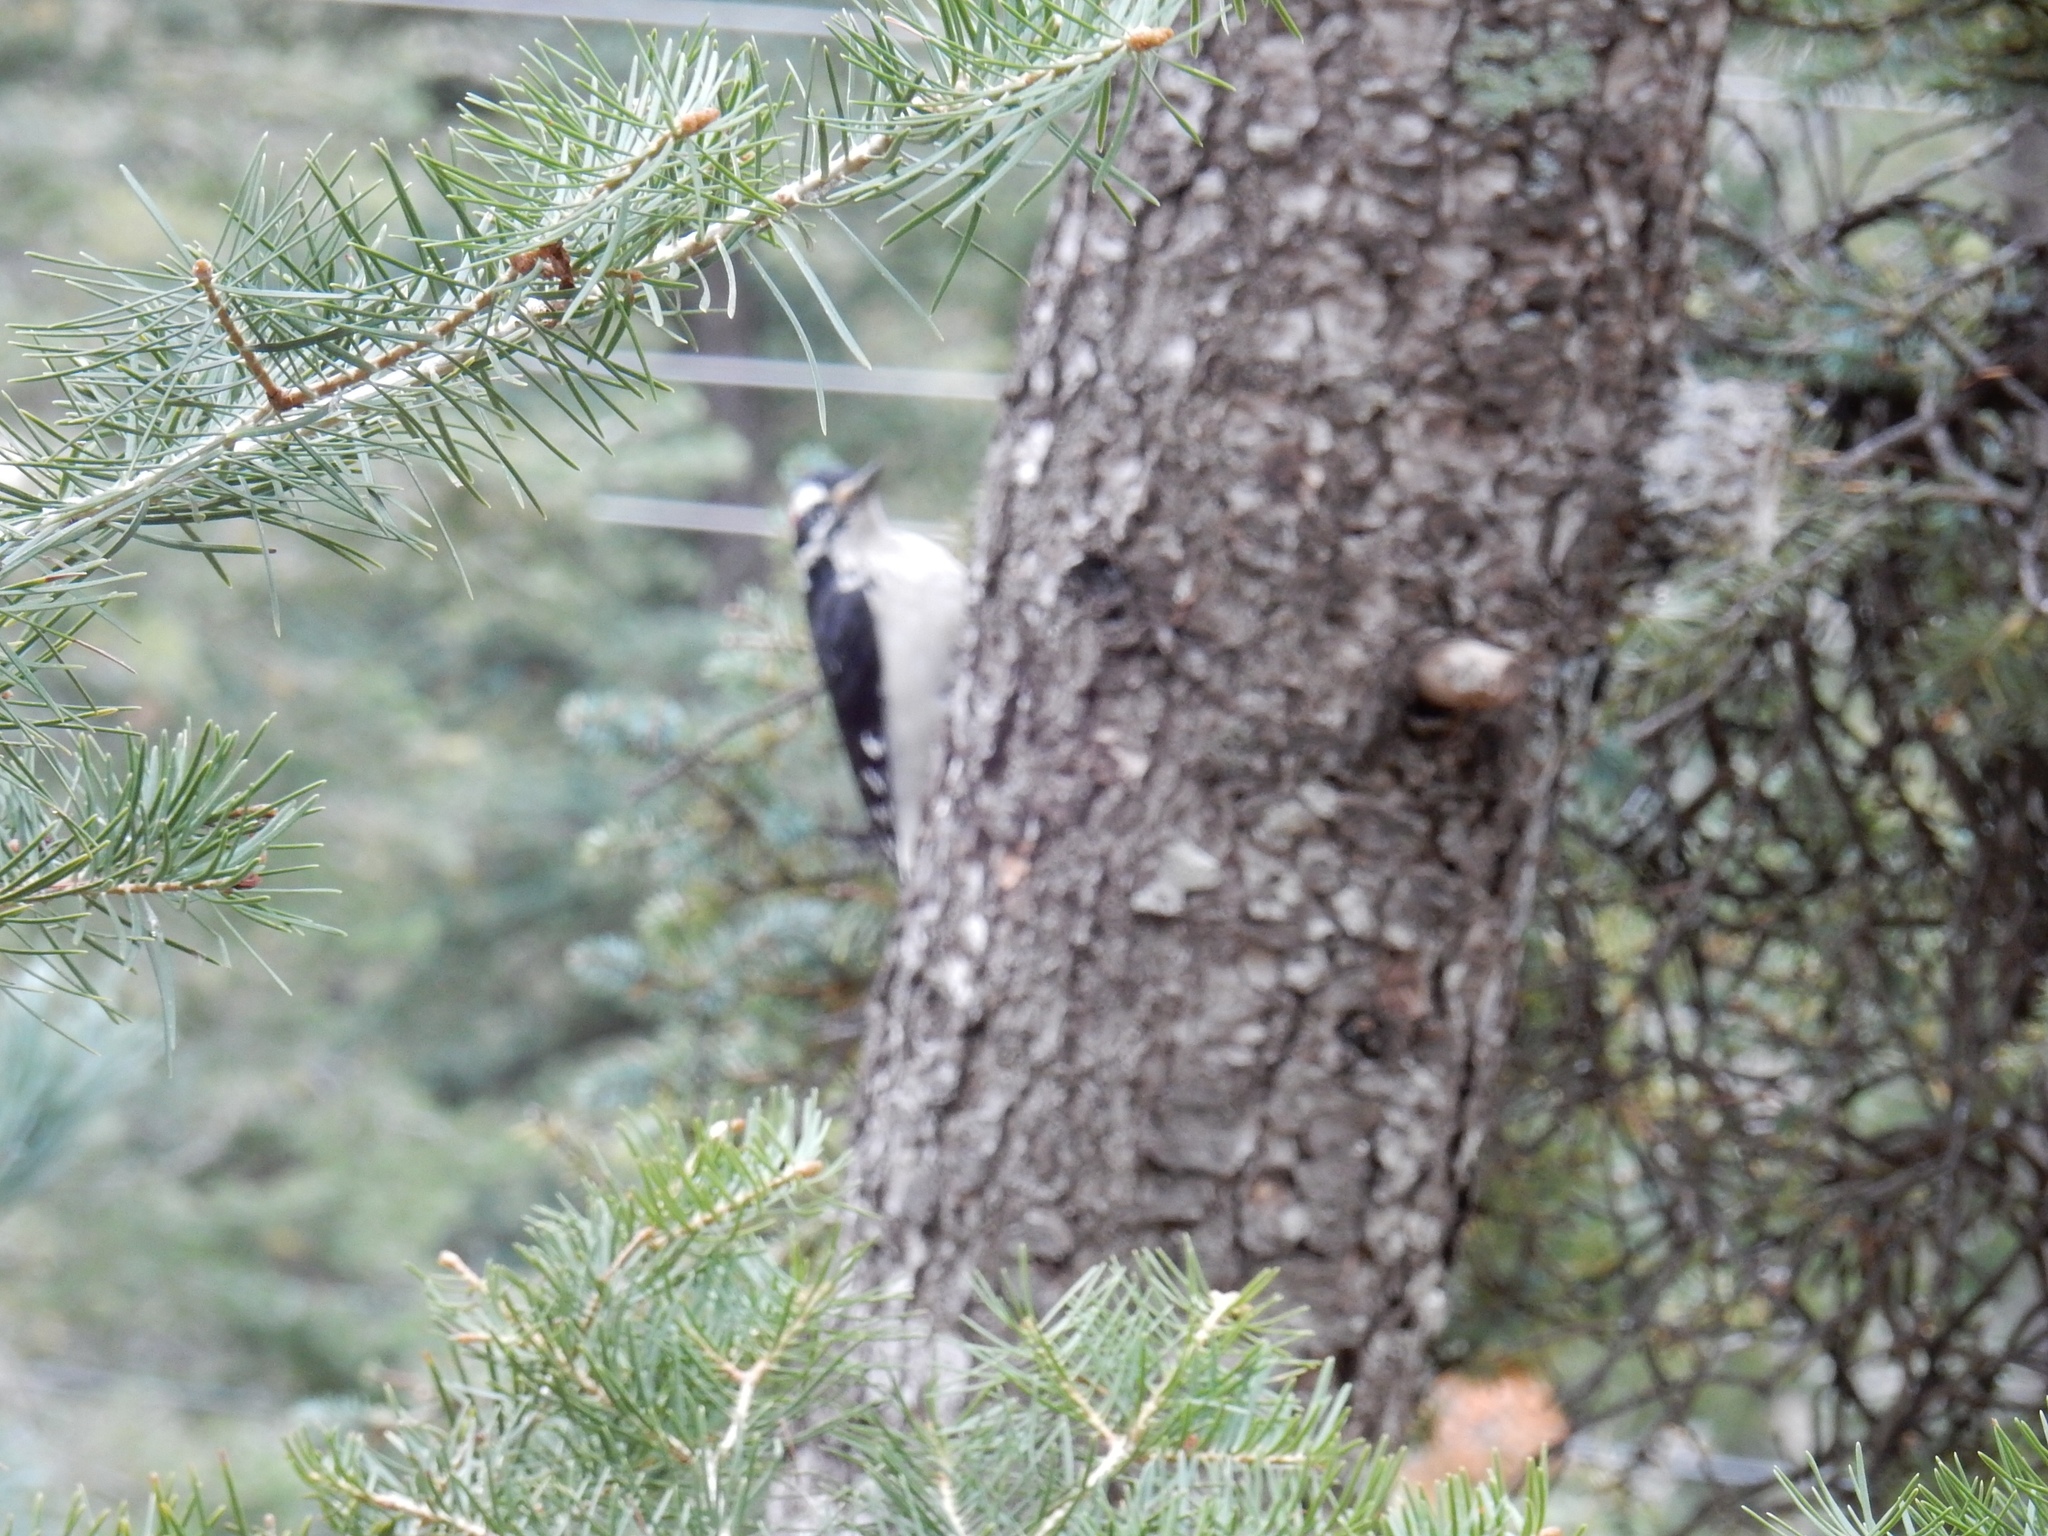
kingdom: Animalia
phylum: Chordata
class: Aves
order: Piciformes
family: Picidae
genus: Leuconotopicus
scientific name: Leuconotopicus villosus
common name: Hairy woodpecker
